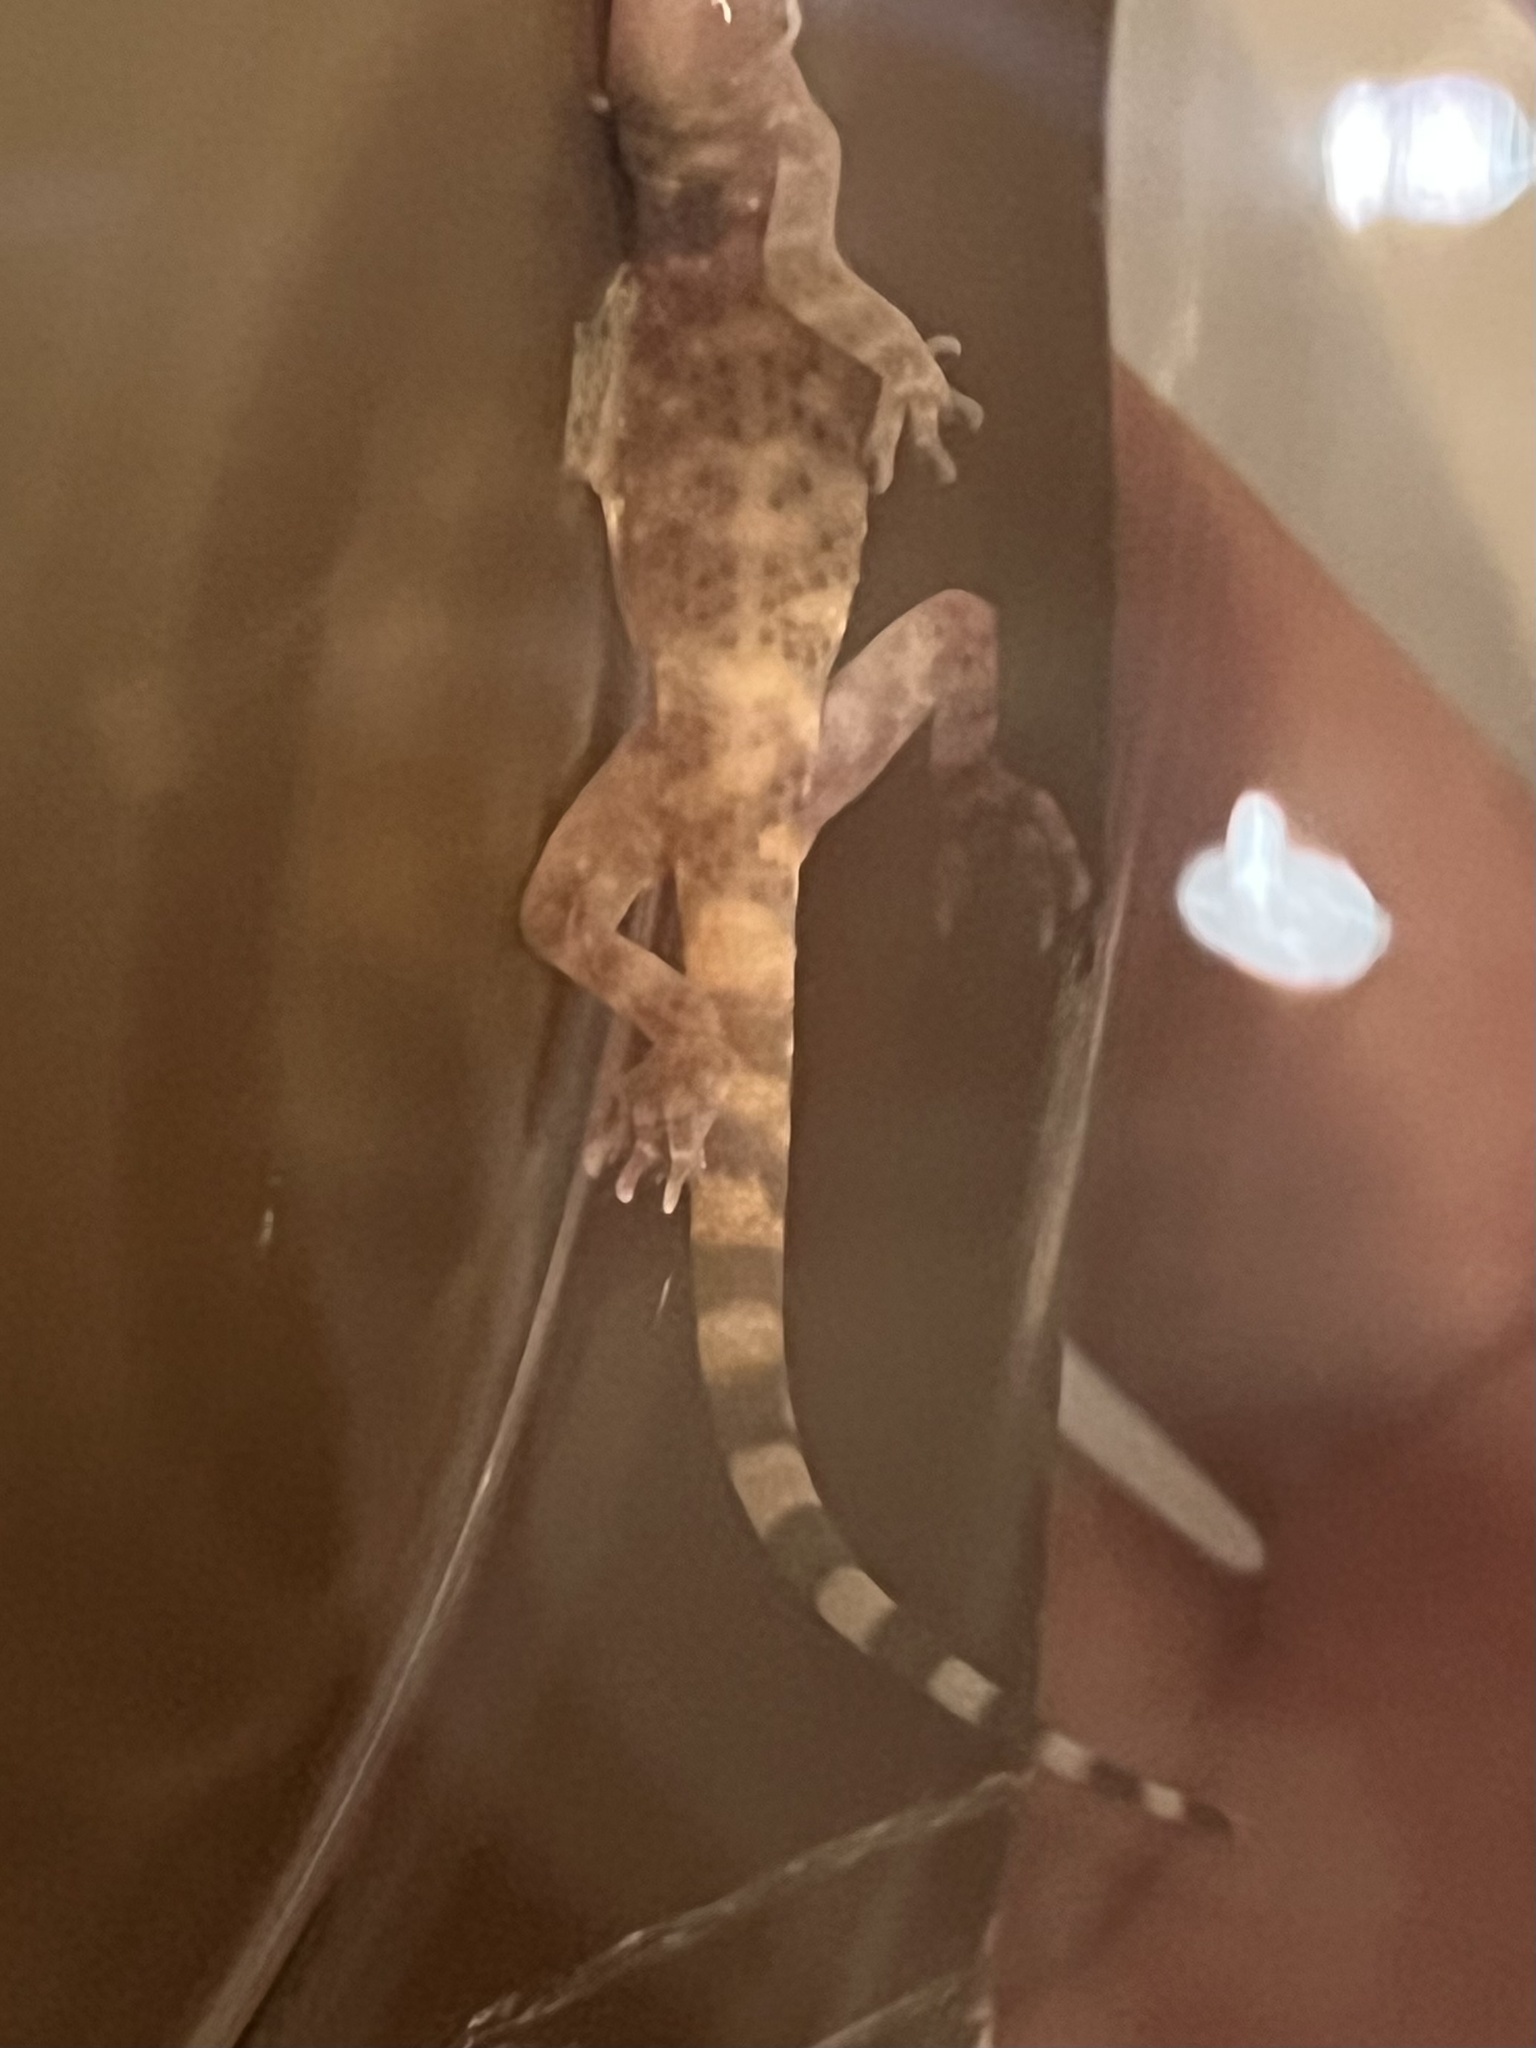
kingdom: Animalia
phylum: Chordata
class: Squamata
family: Gekkonidae
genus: Hemidactylus
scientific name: Hemidactylus turcicus
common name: Turkish gecko
